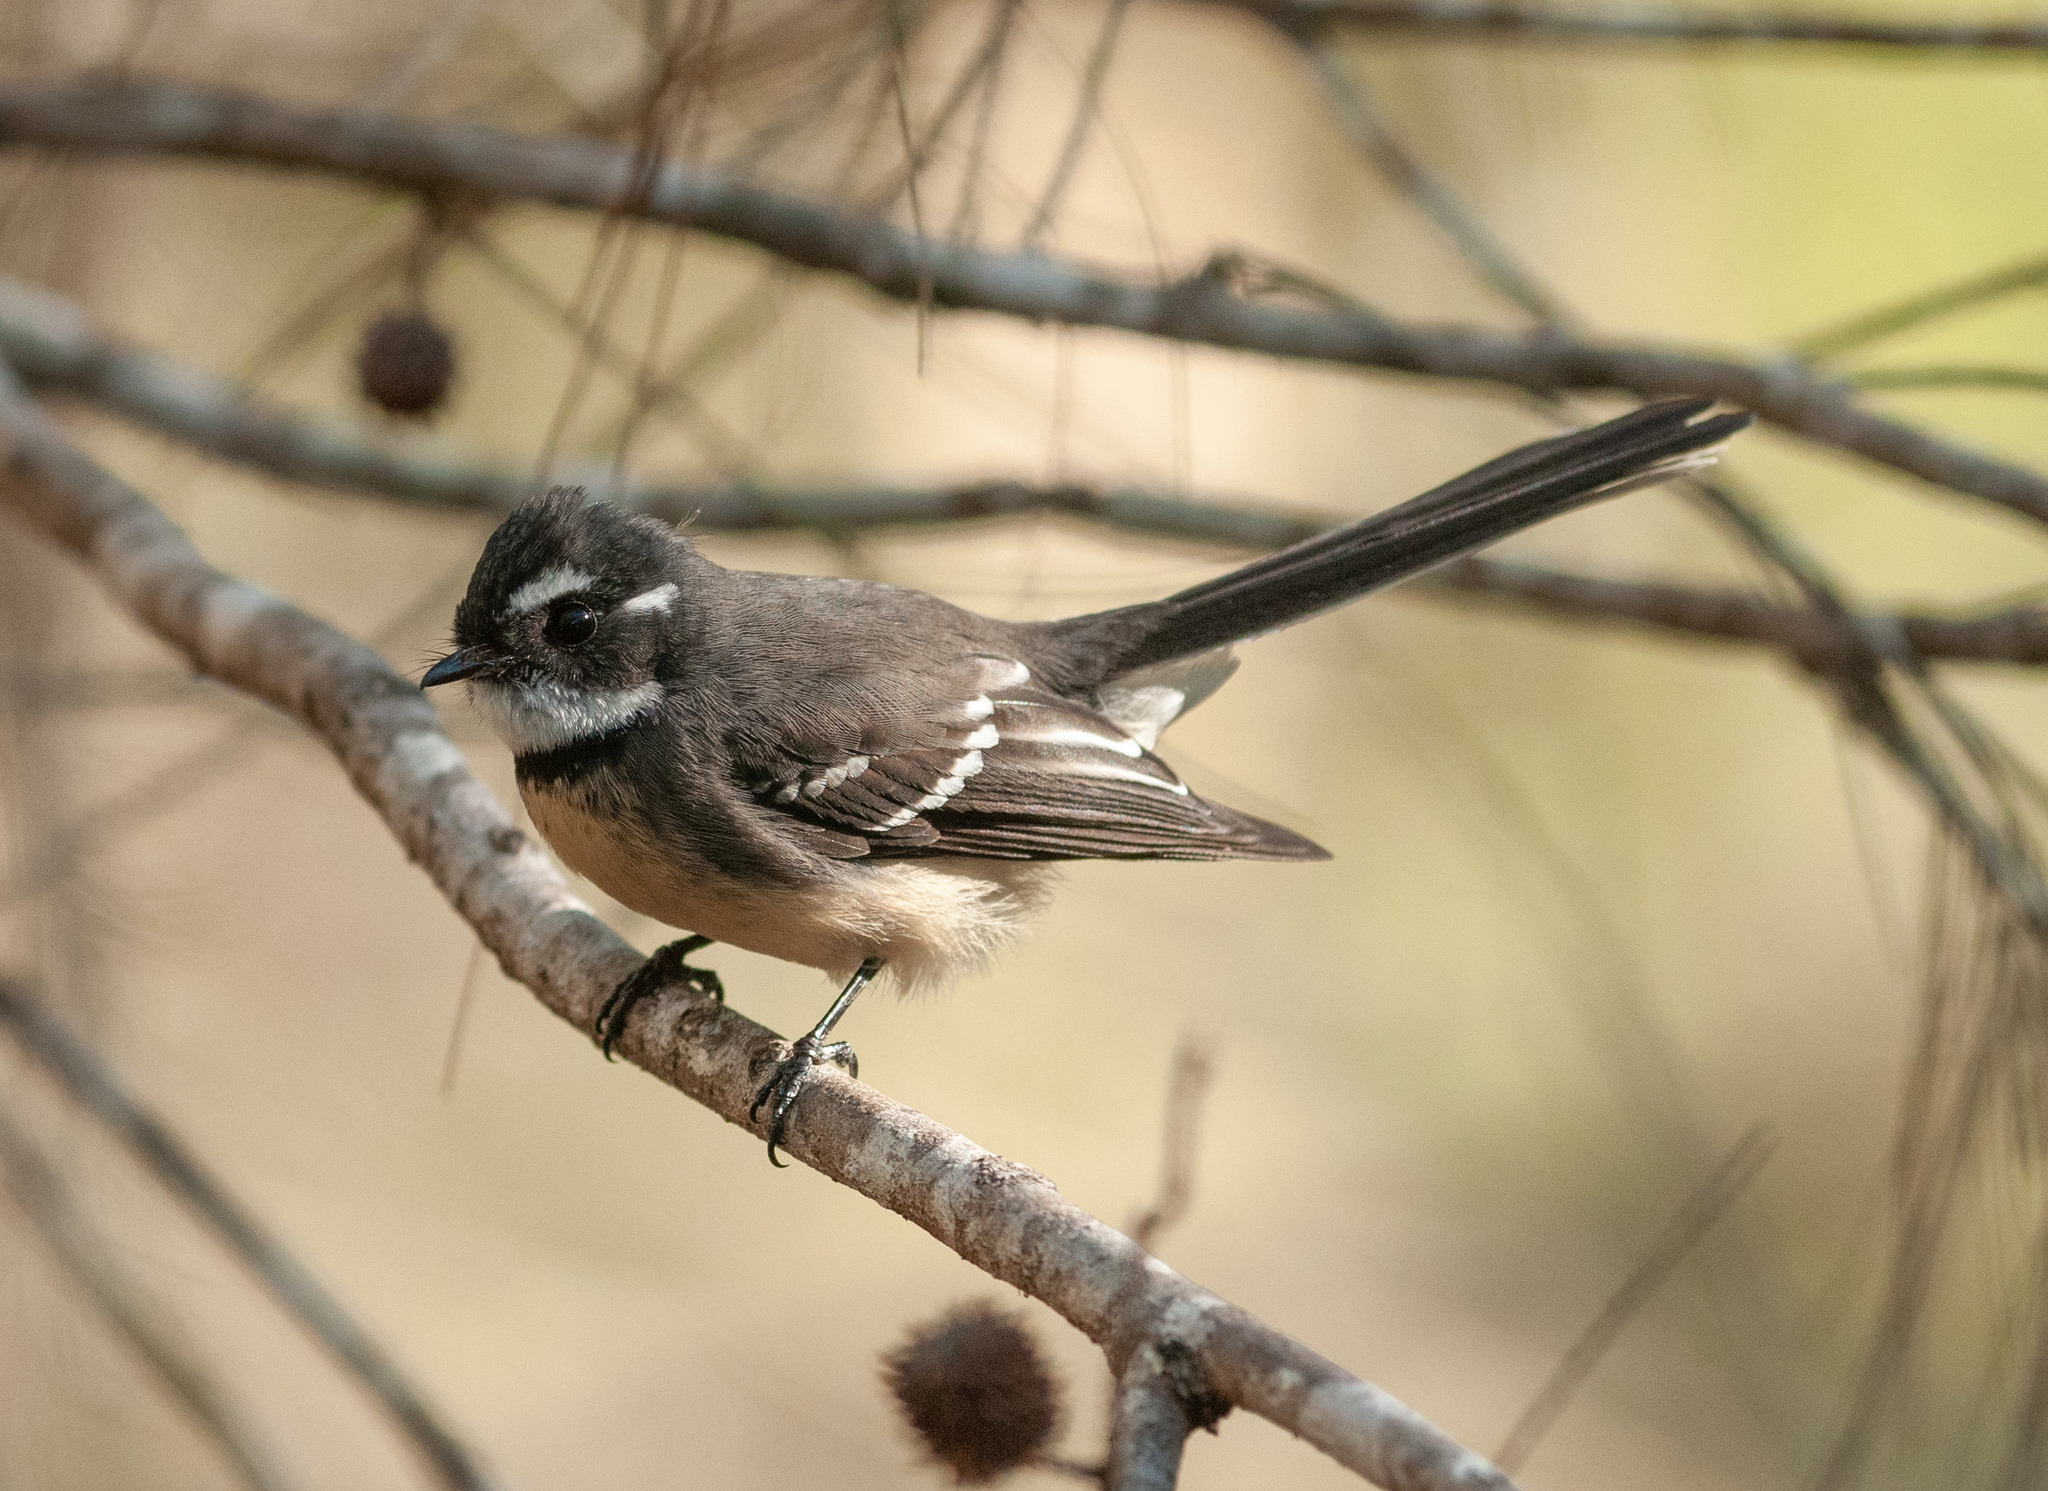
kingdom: Animalia
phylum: Chordata
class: Aves
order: Passeriformes
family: Rhipiduridae
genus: Rhipidura
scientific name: Rhipidura albiscapa
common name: Grey fantail
